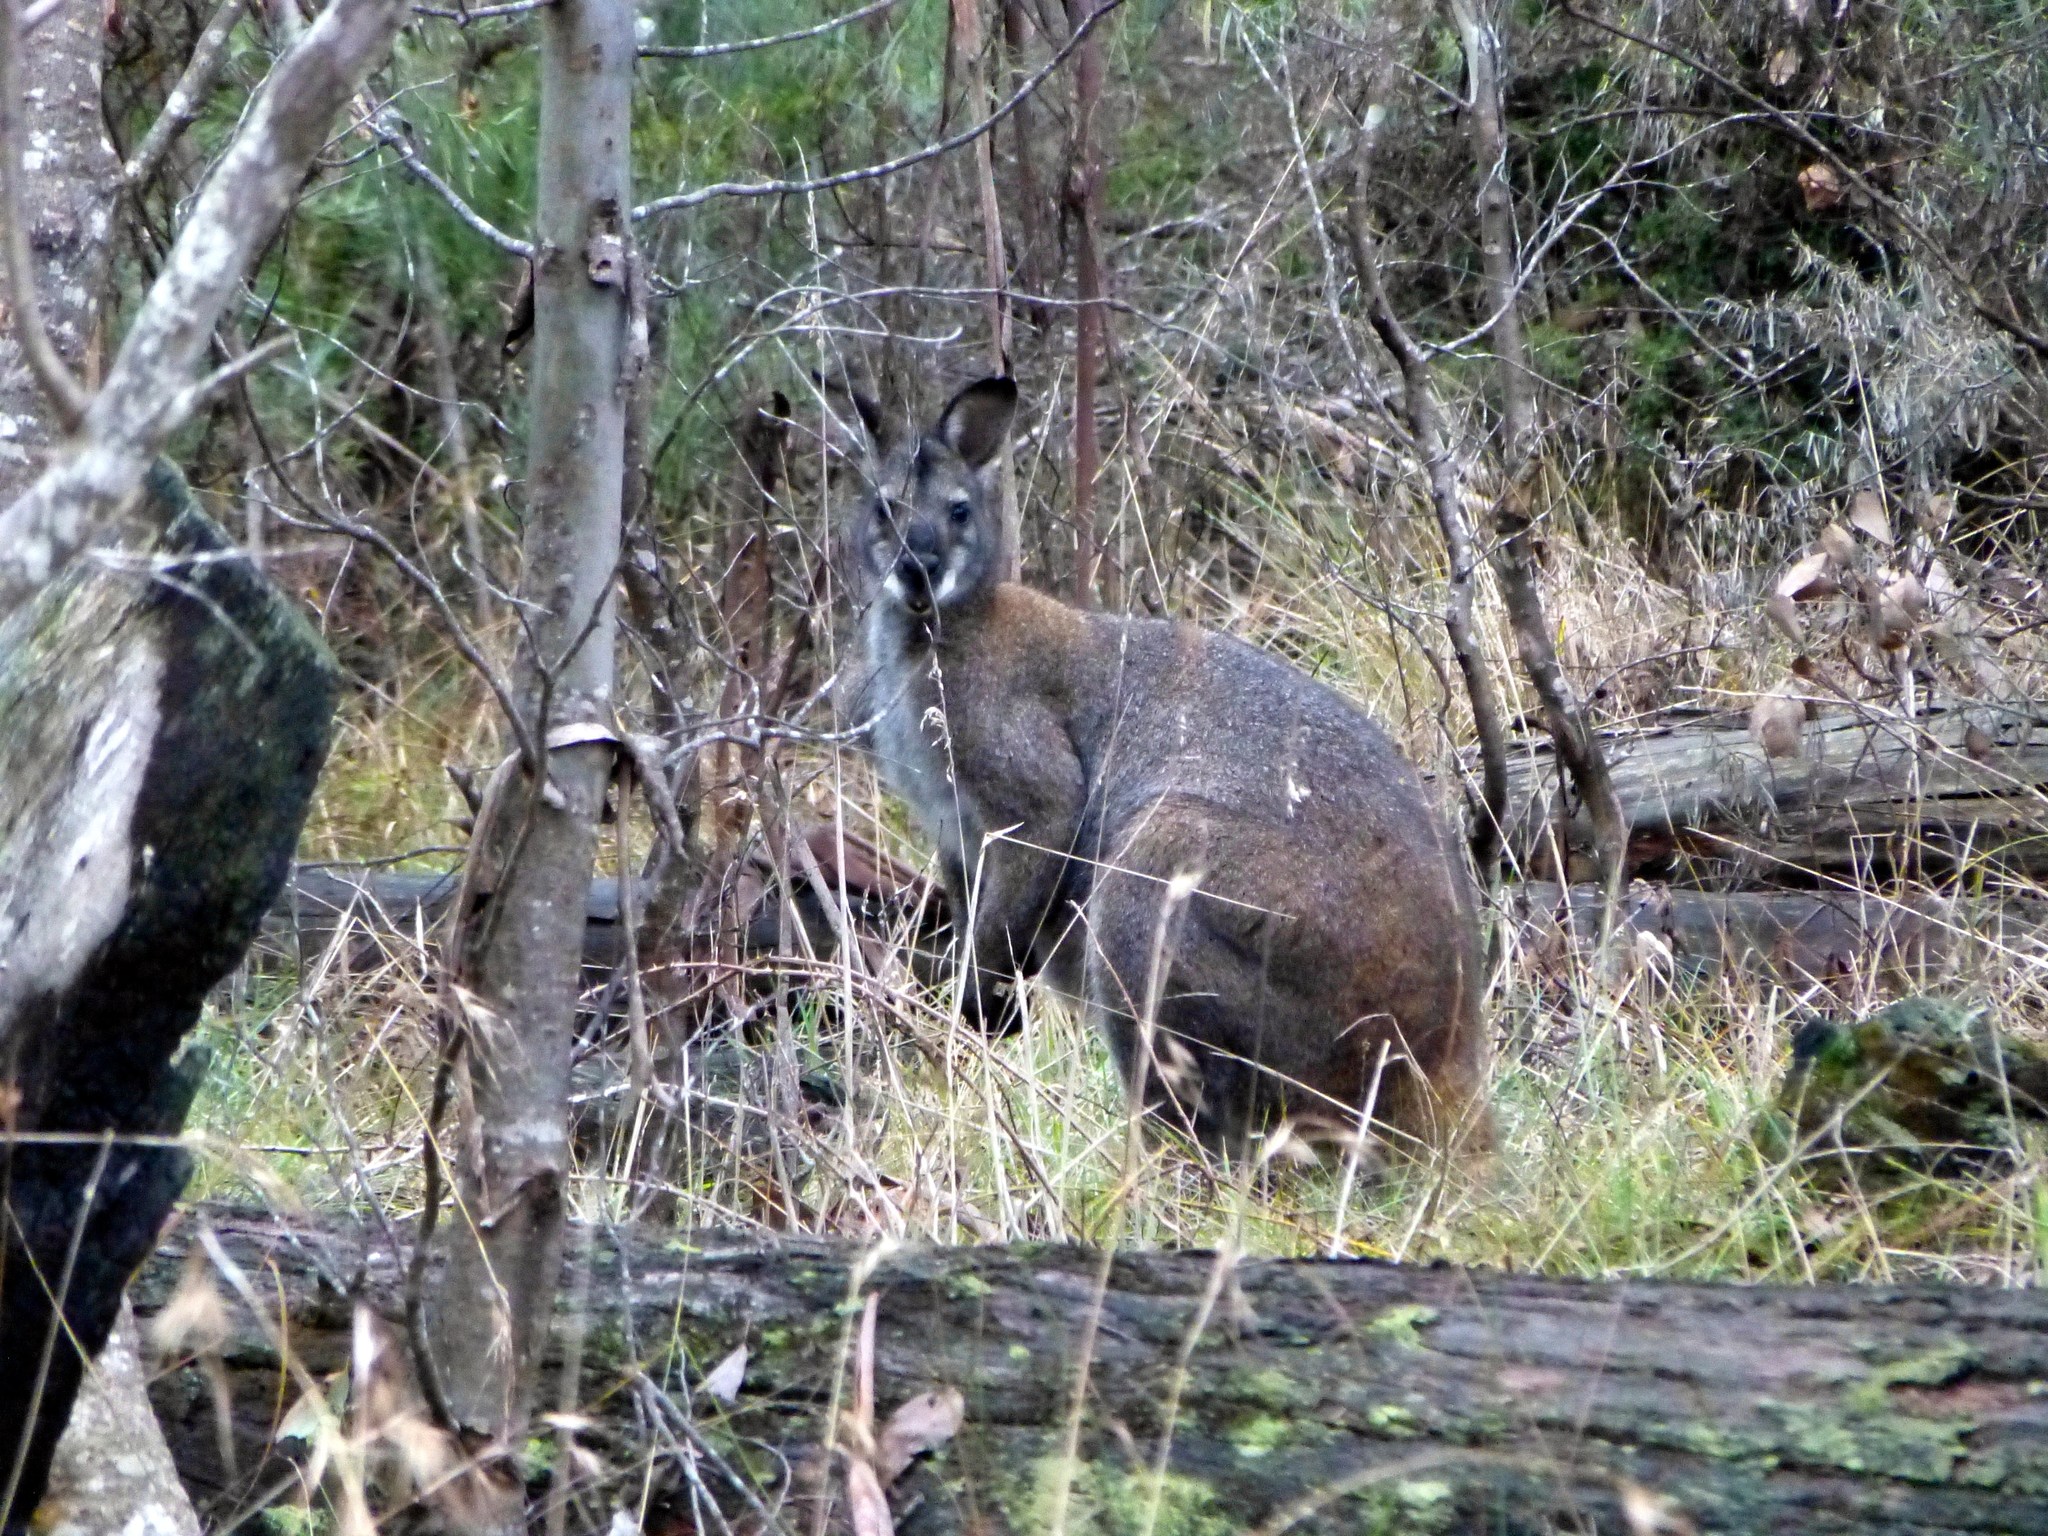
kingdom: Animalia
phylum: Chordata
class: Mammalia
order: Diprotodontia
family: Macropodidae
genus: Notamacropus
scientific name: Notamacropus rufogriseus
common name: Red-necked wallaby
